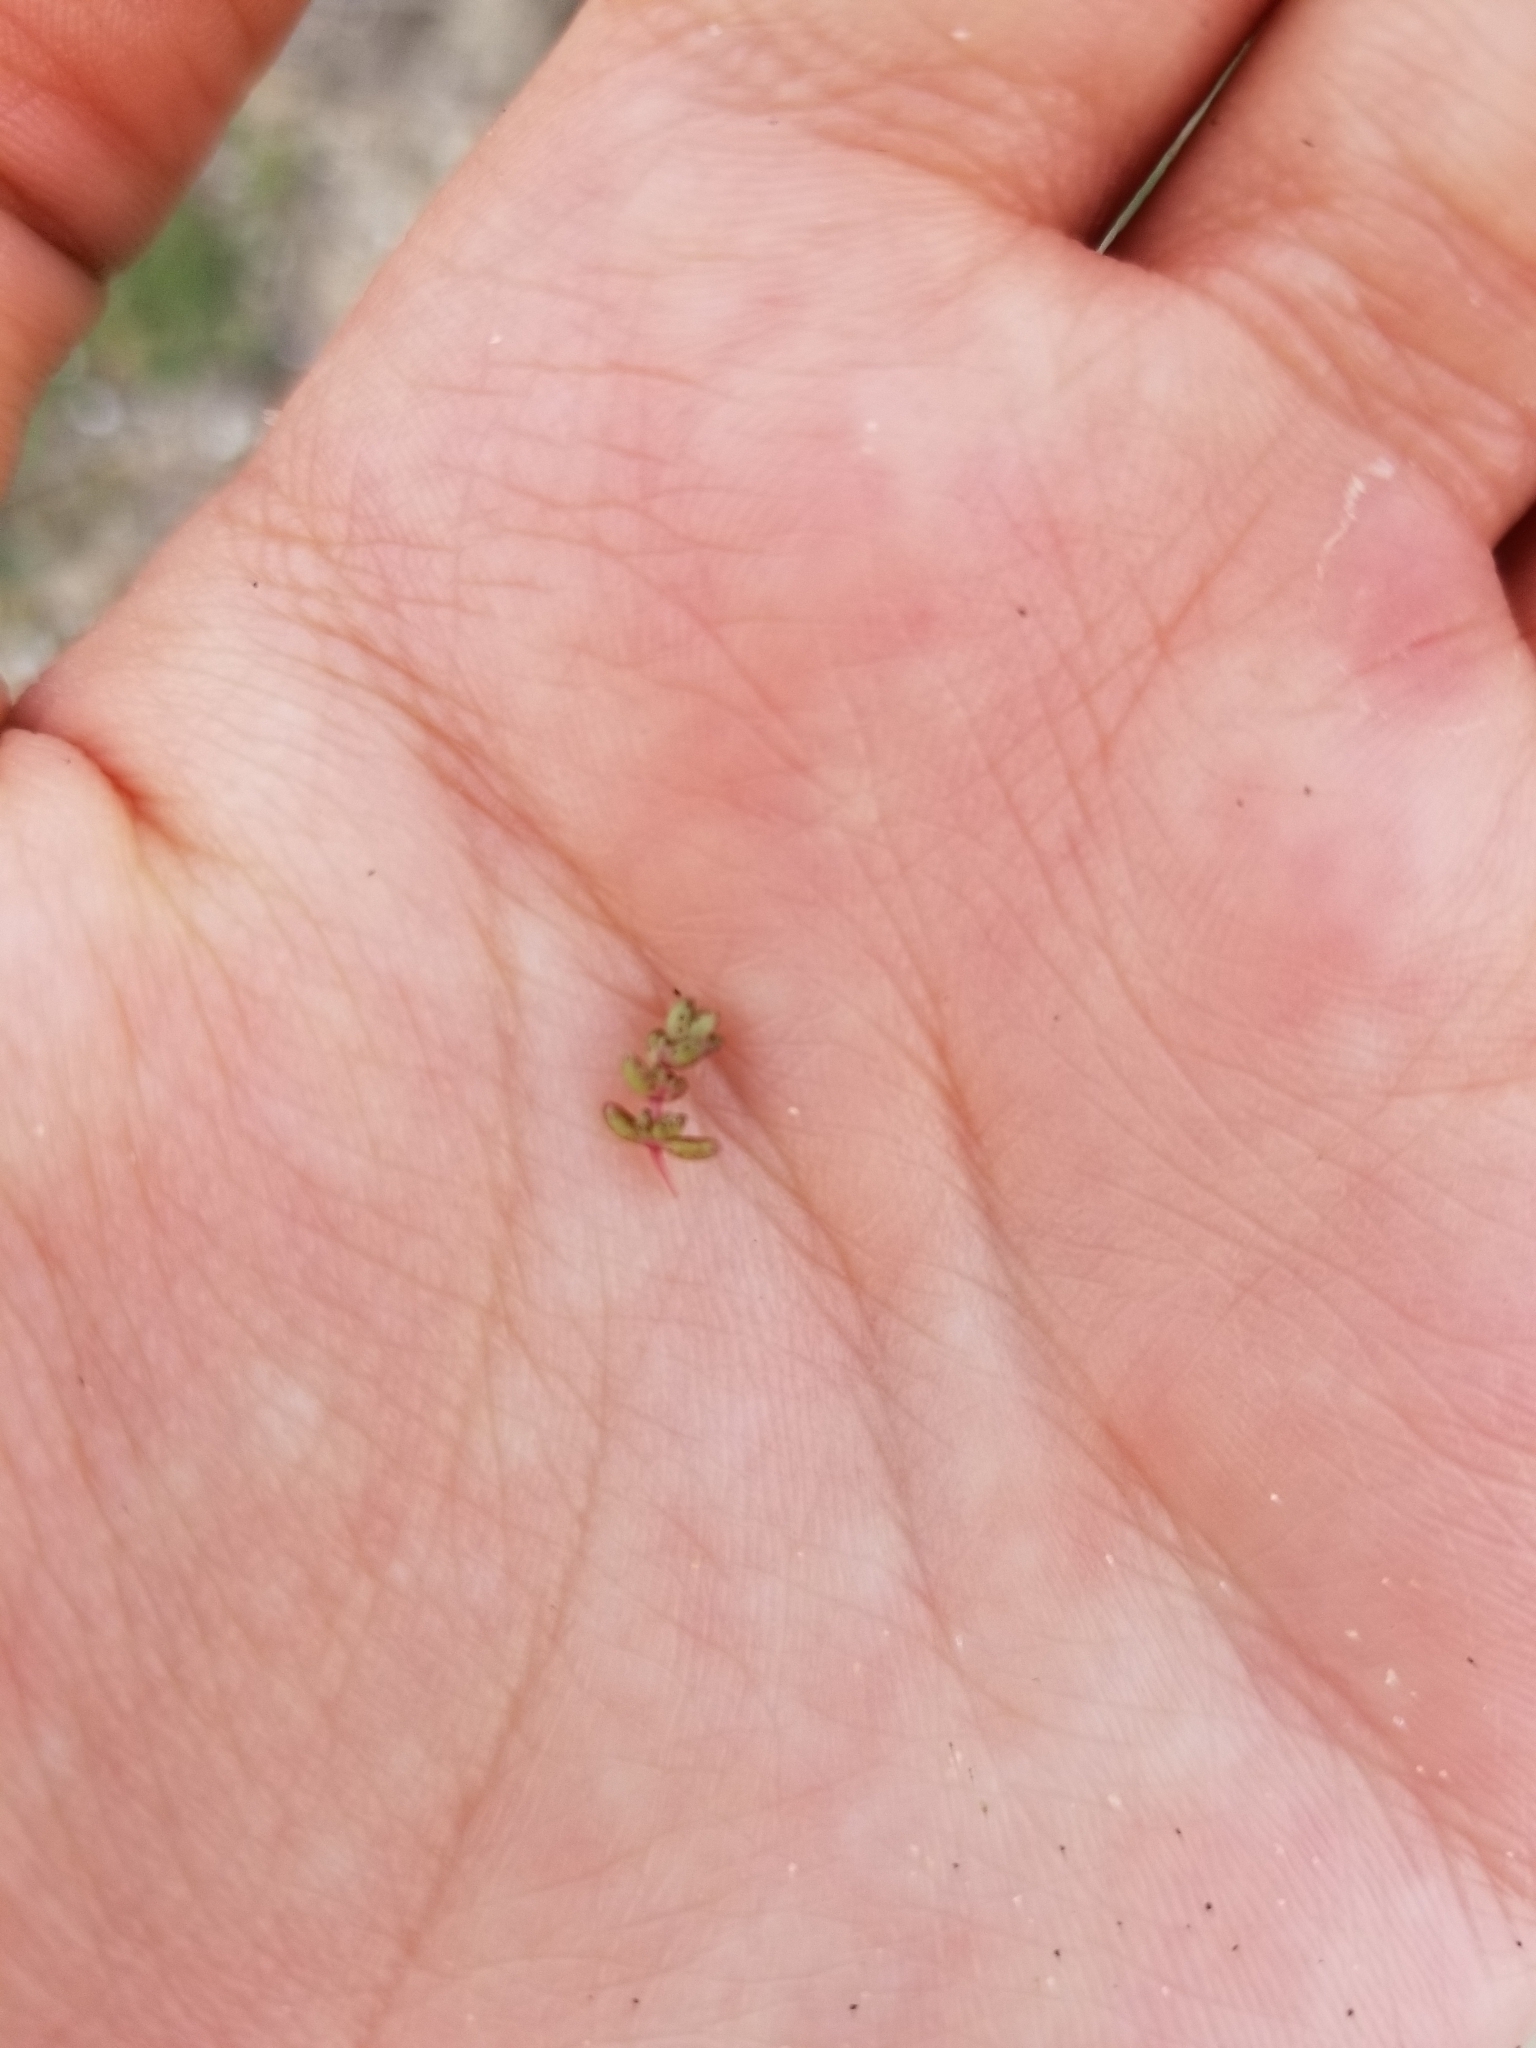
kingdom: Plantae
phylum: Tracheophyta
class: Magnoliopsida
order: Saxifragales
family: Crassulaceae
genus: Crassula
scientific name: Crassula connata
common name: Erect pygmyweed
